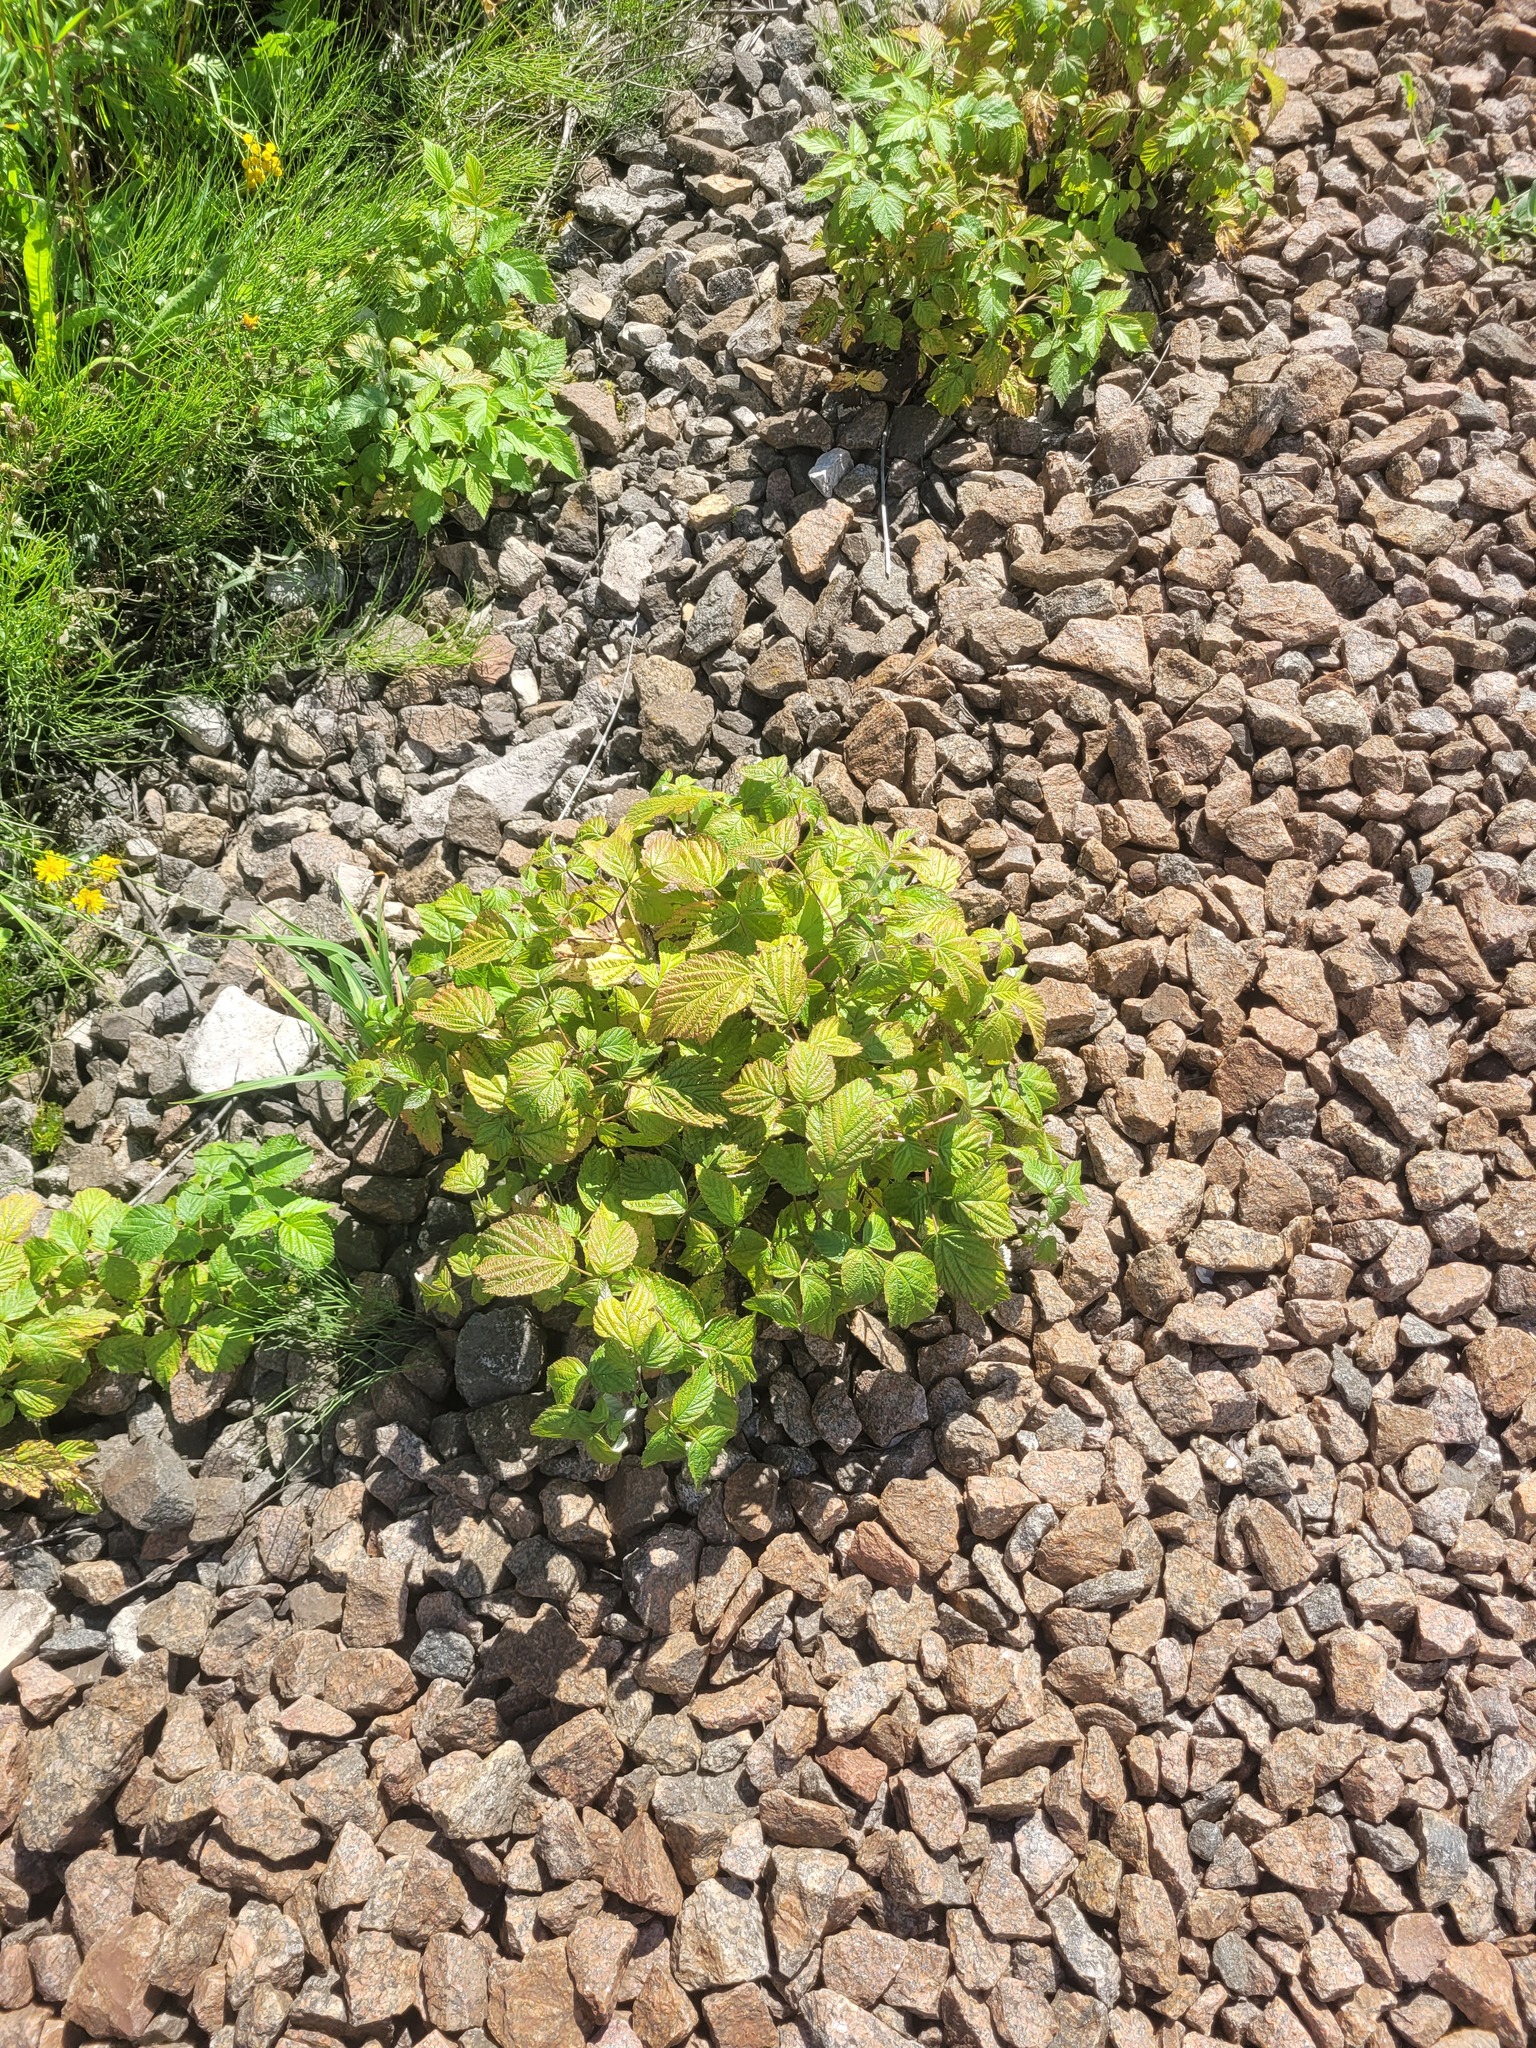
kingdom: Plantae
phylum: Tracheophyta
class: Magnoliopsida
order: Rosales
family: Rosaceae
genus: Rubus
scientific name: Rubus idaeus
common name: Raspberry
